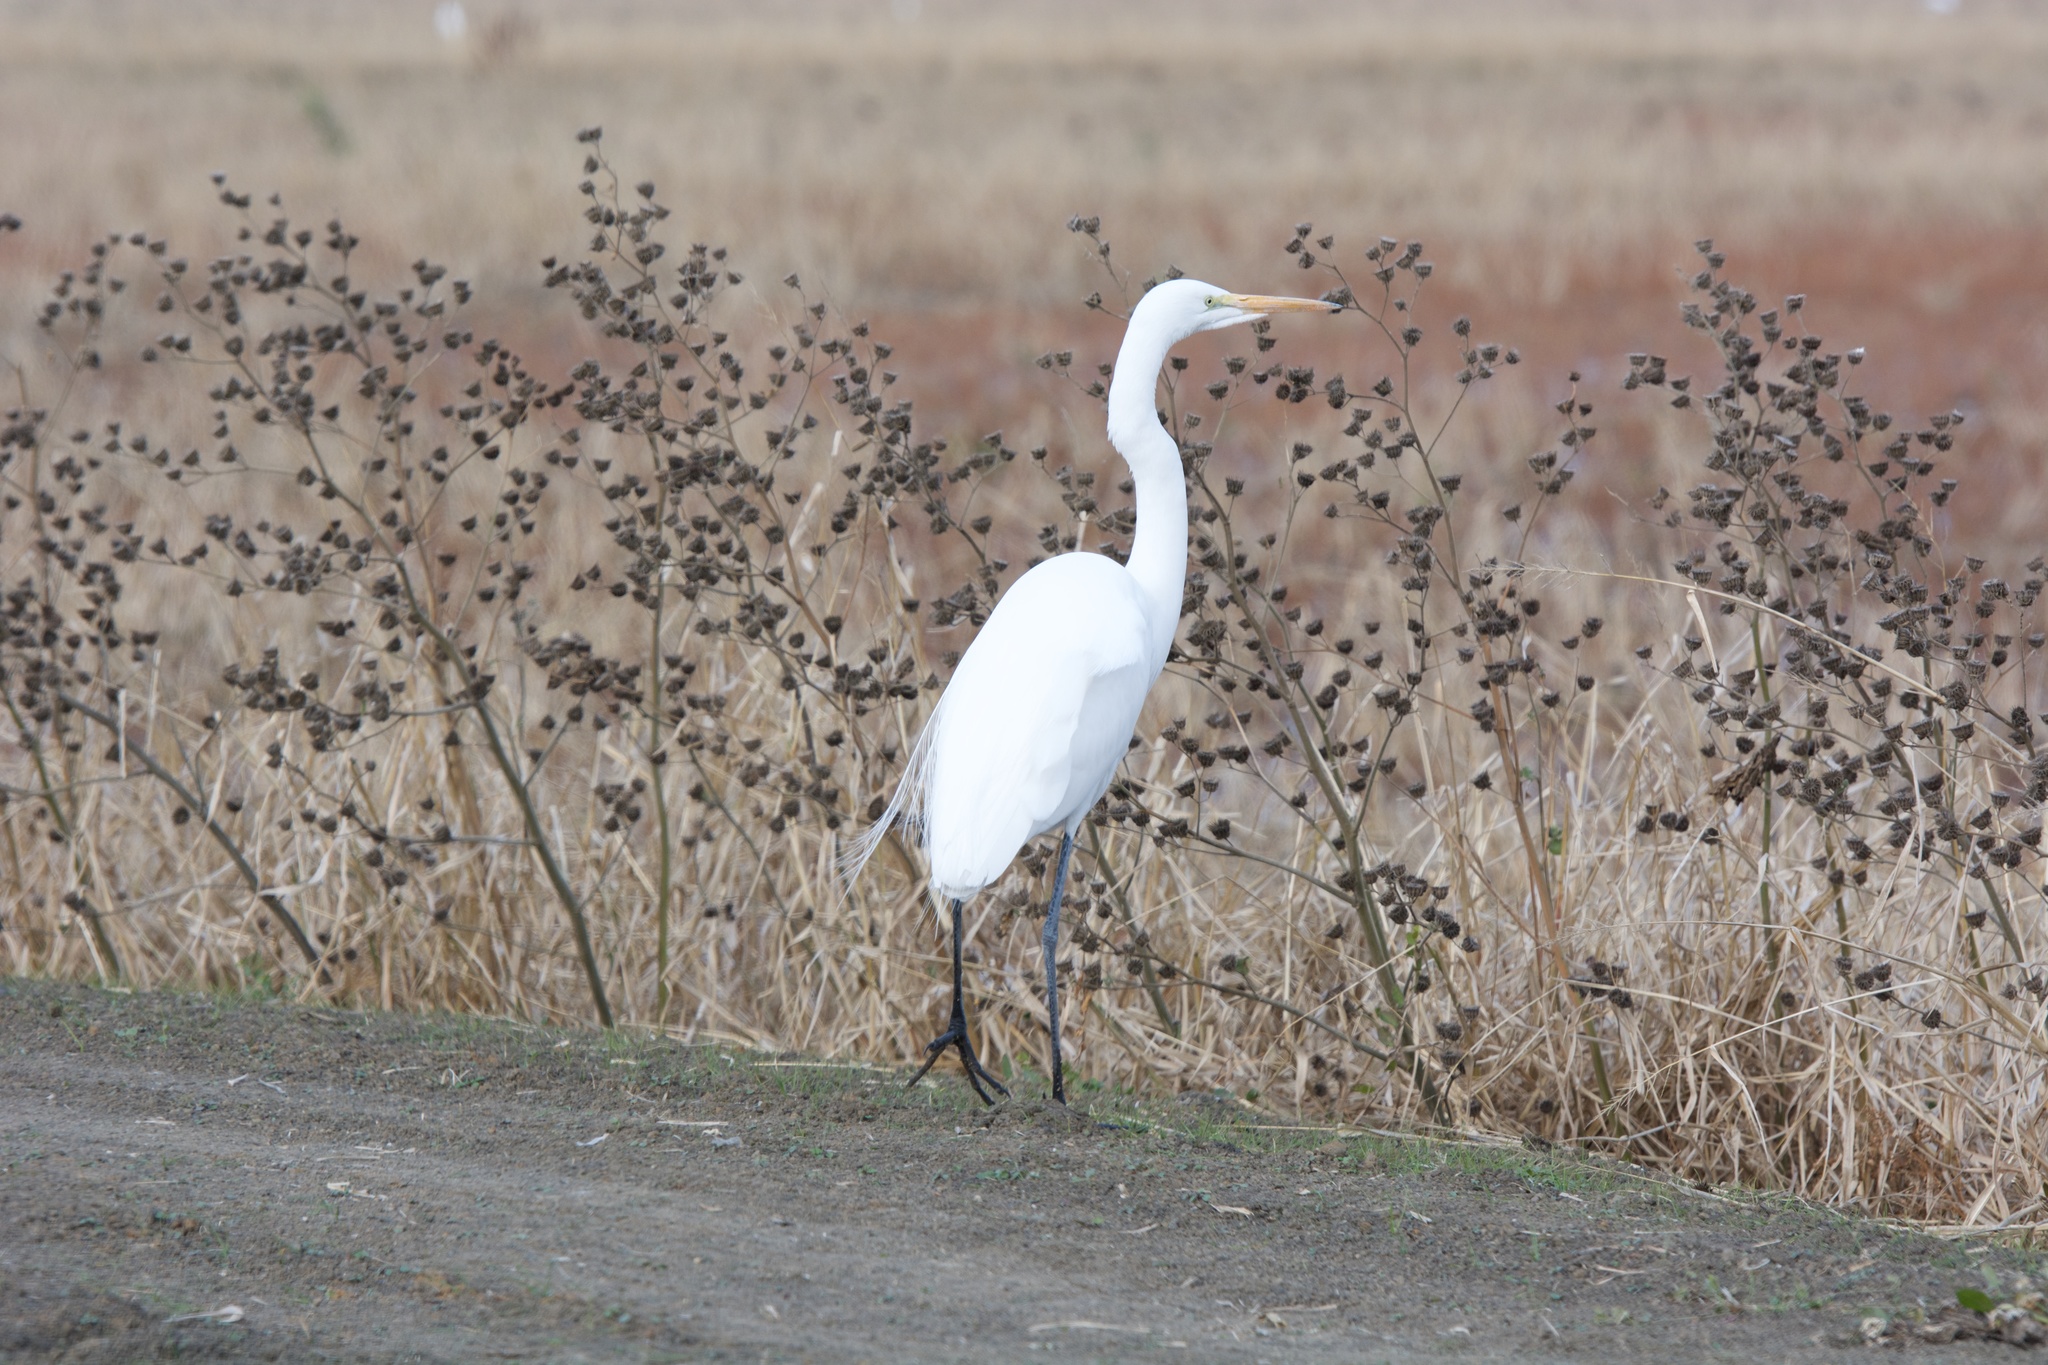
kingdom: Animalia
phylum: Chordata
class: Aves
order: Pelecaniformes
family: Ardeidae
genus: Ardea
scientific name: Ardea alba
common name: Great egret
